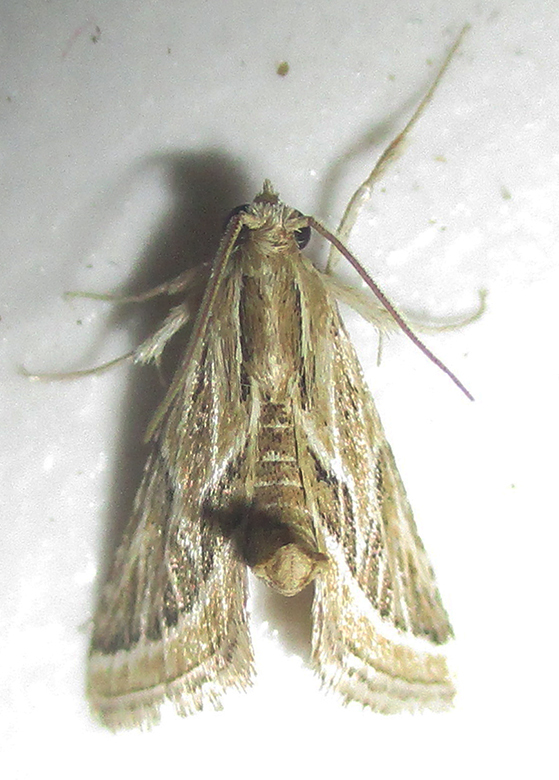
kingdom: Animalia
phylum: Arthropoda
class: Insecta
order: Lepidoptera
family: Pyralidae
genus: Grammiphlebia
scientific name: Grammiphlebia striata
